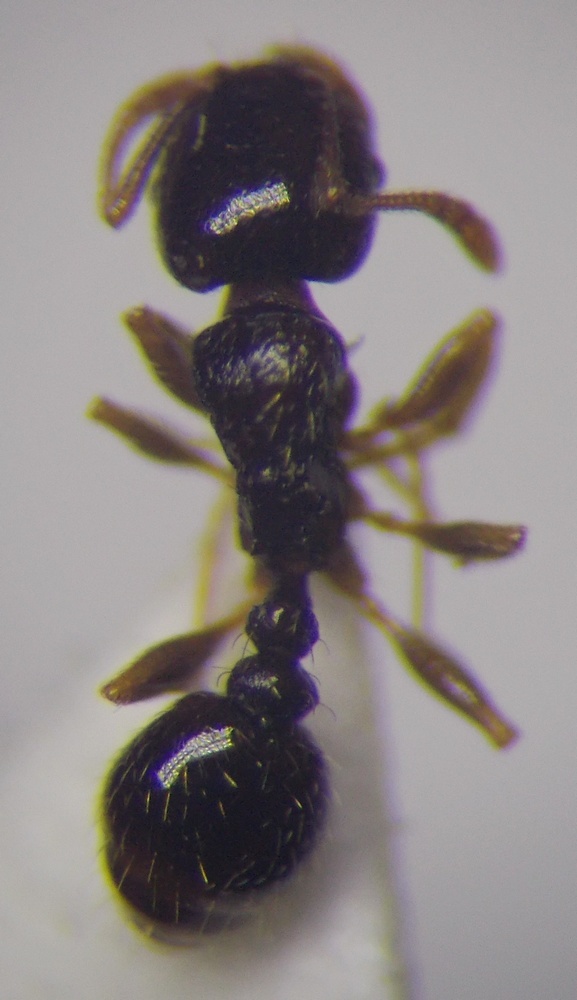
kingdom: Animalia
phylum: Arthropoda
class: Insecta
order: Hymenoptera
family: Formicidae
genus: Tetramorium
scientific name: Tetramorium inerme
